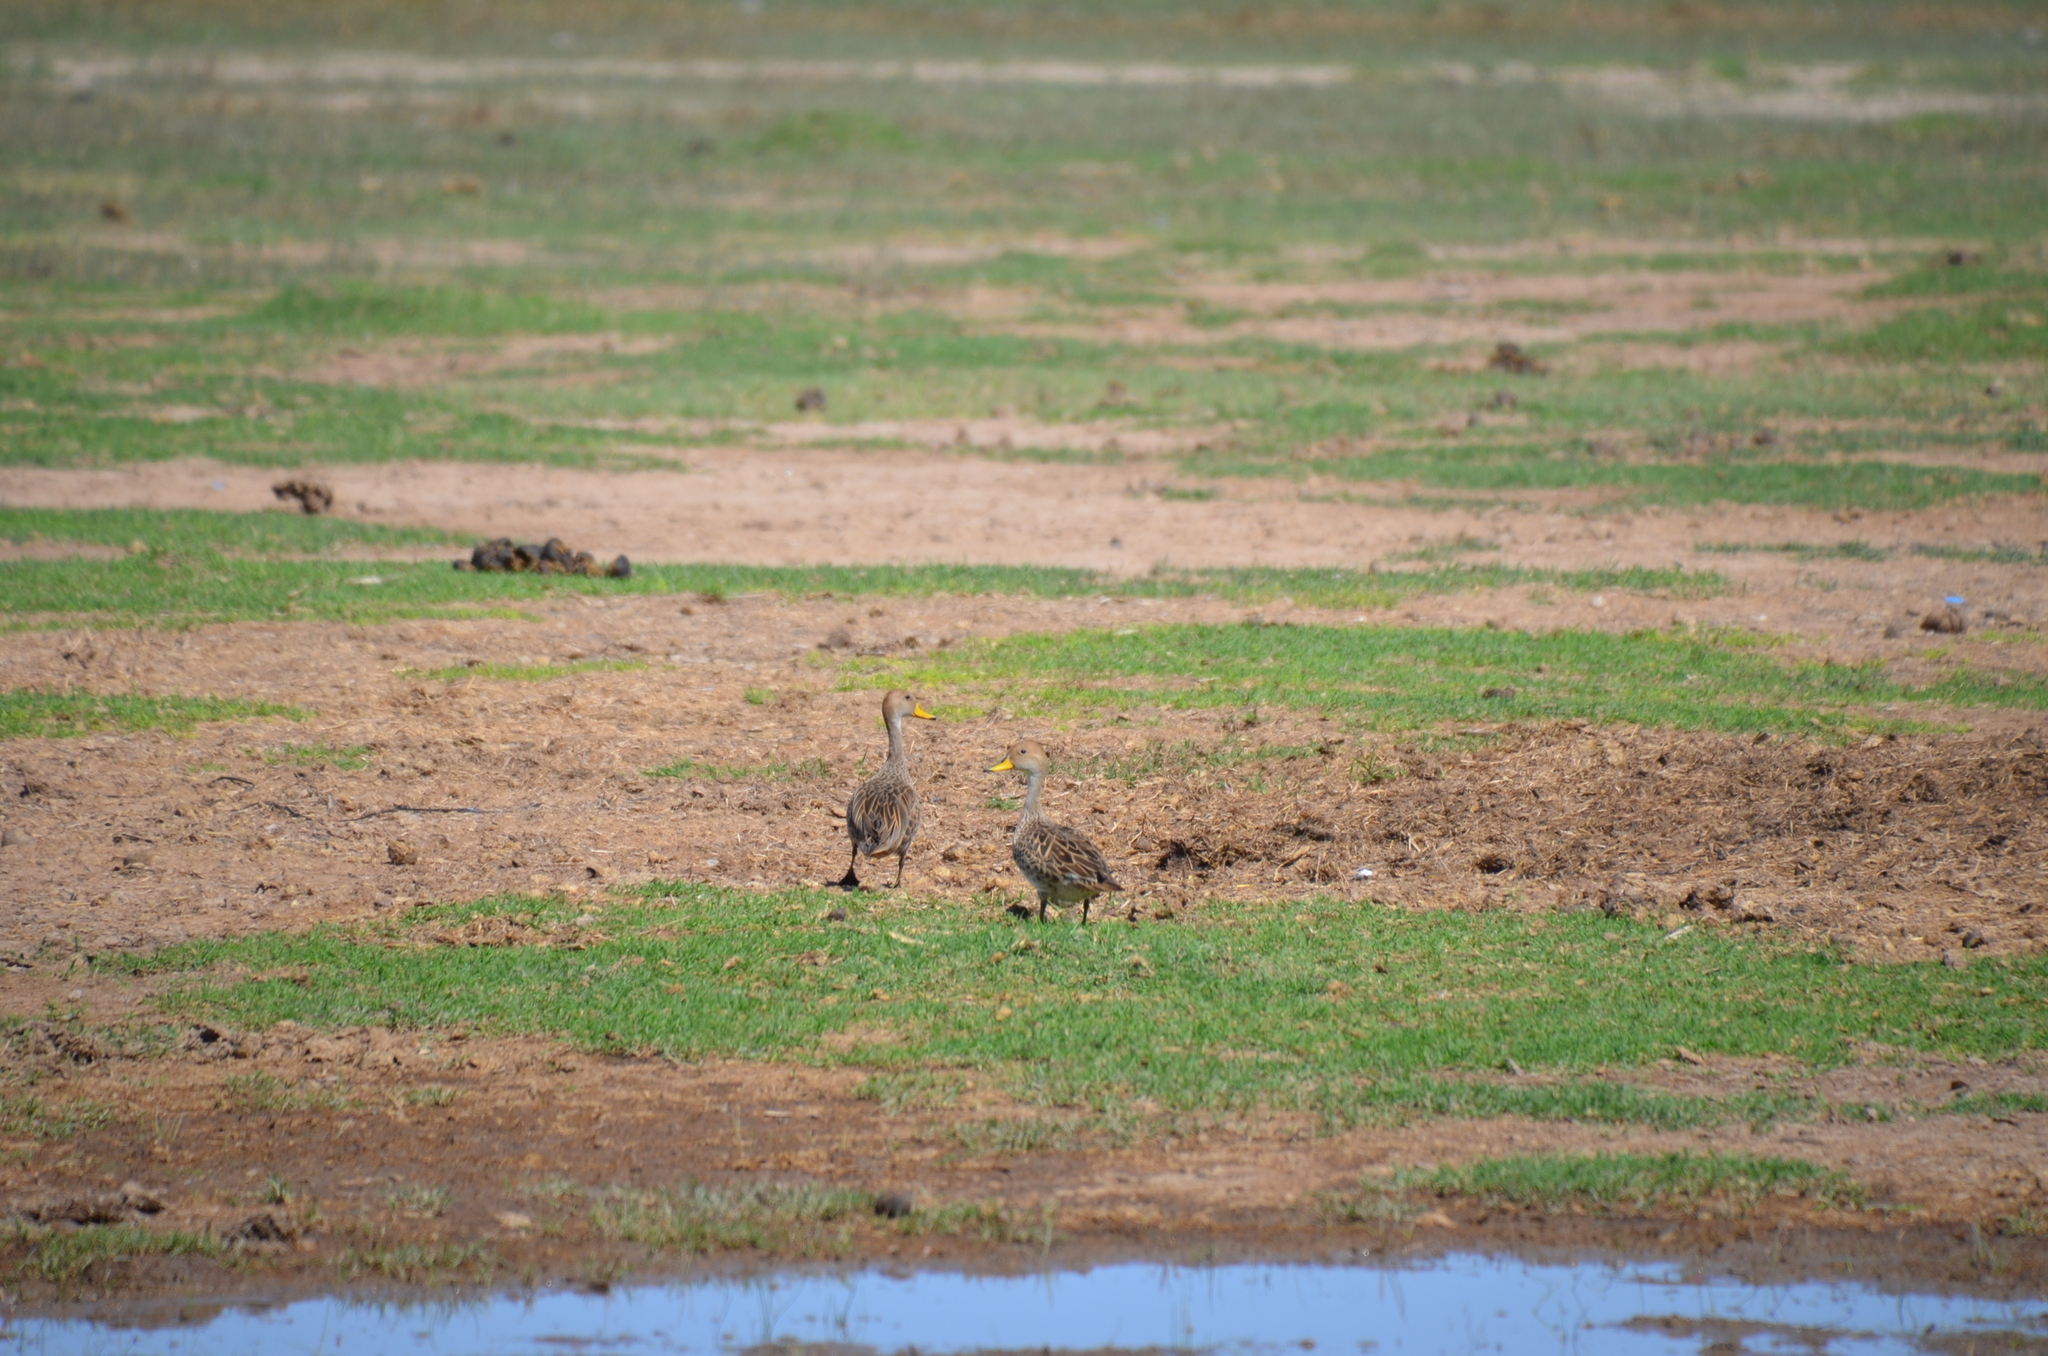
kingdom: Animalia
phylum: Chordata
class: Aves
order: Anseriformes
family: Anatidae
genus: Anas
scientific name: Anas georgica
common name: Yellow-billed pintail
